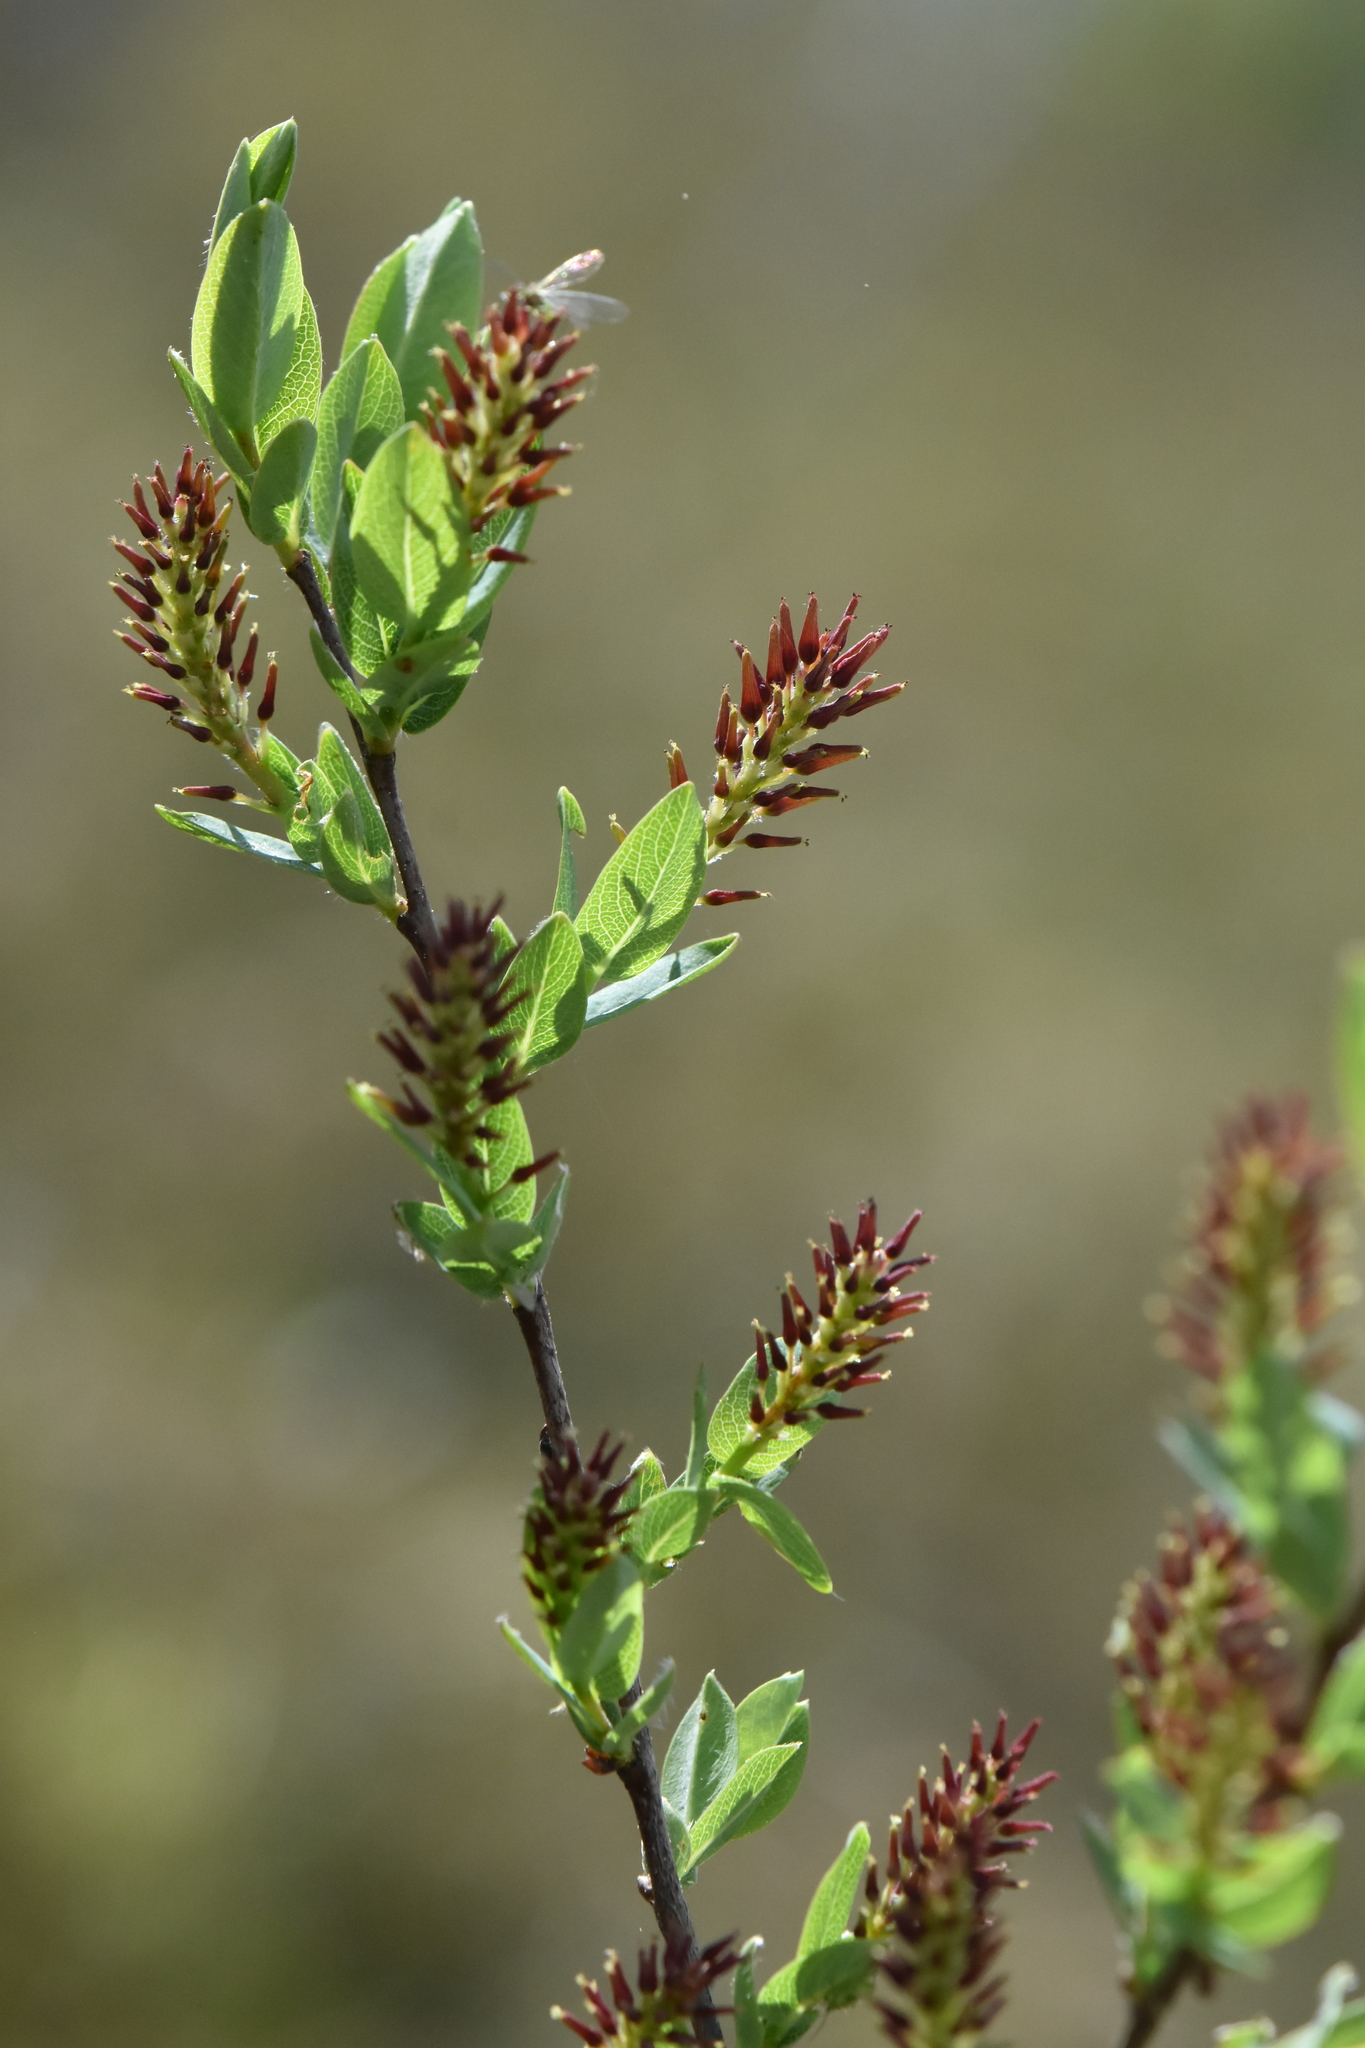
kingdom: Plantae
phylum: Tracheophyta
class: Magnoliopsida
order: Malpighiales
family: Salicaceae
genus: Salix
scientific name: Salix myrtilloides
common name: Myrtle-leaved willow
